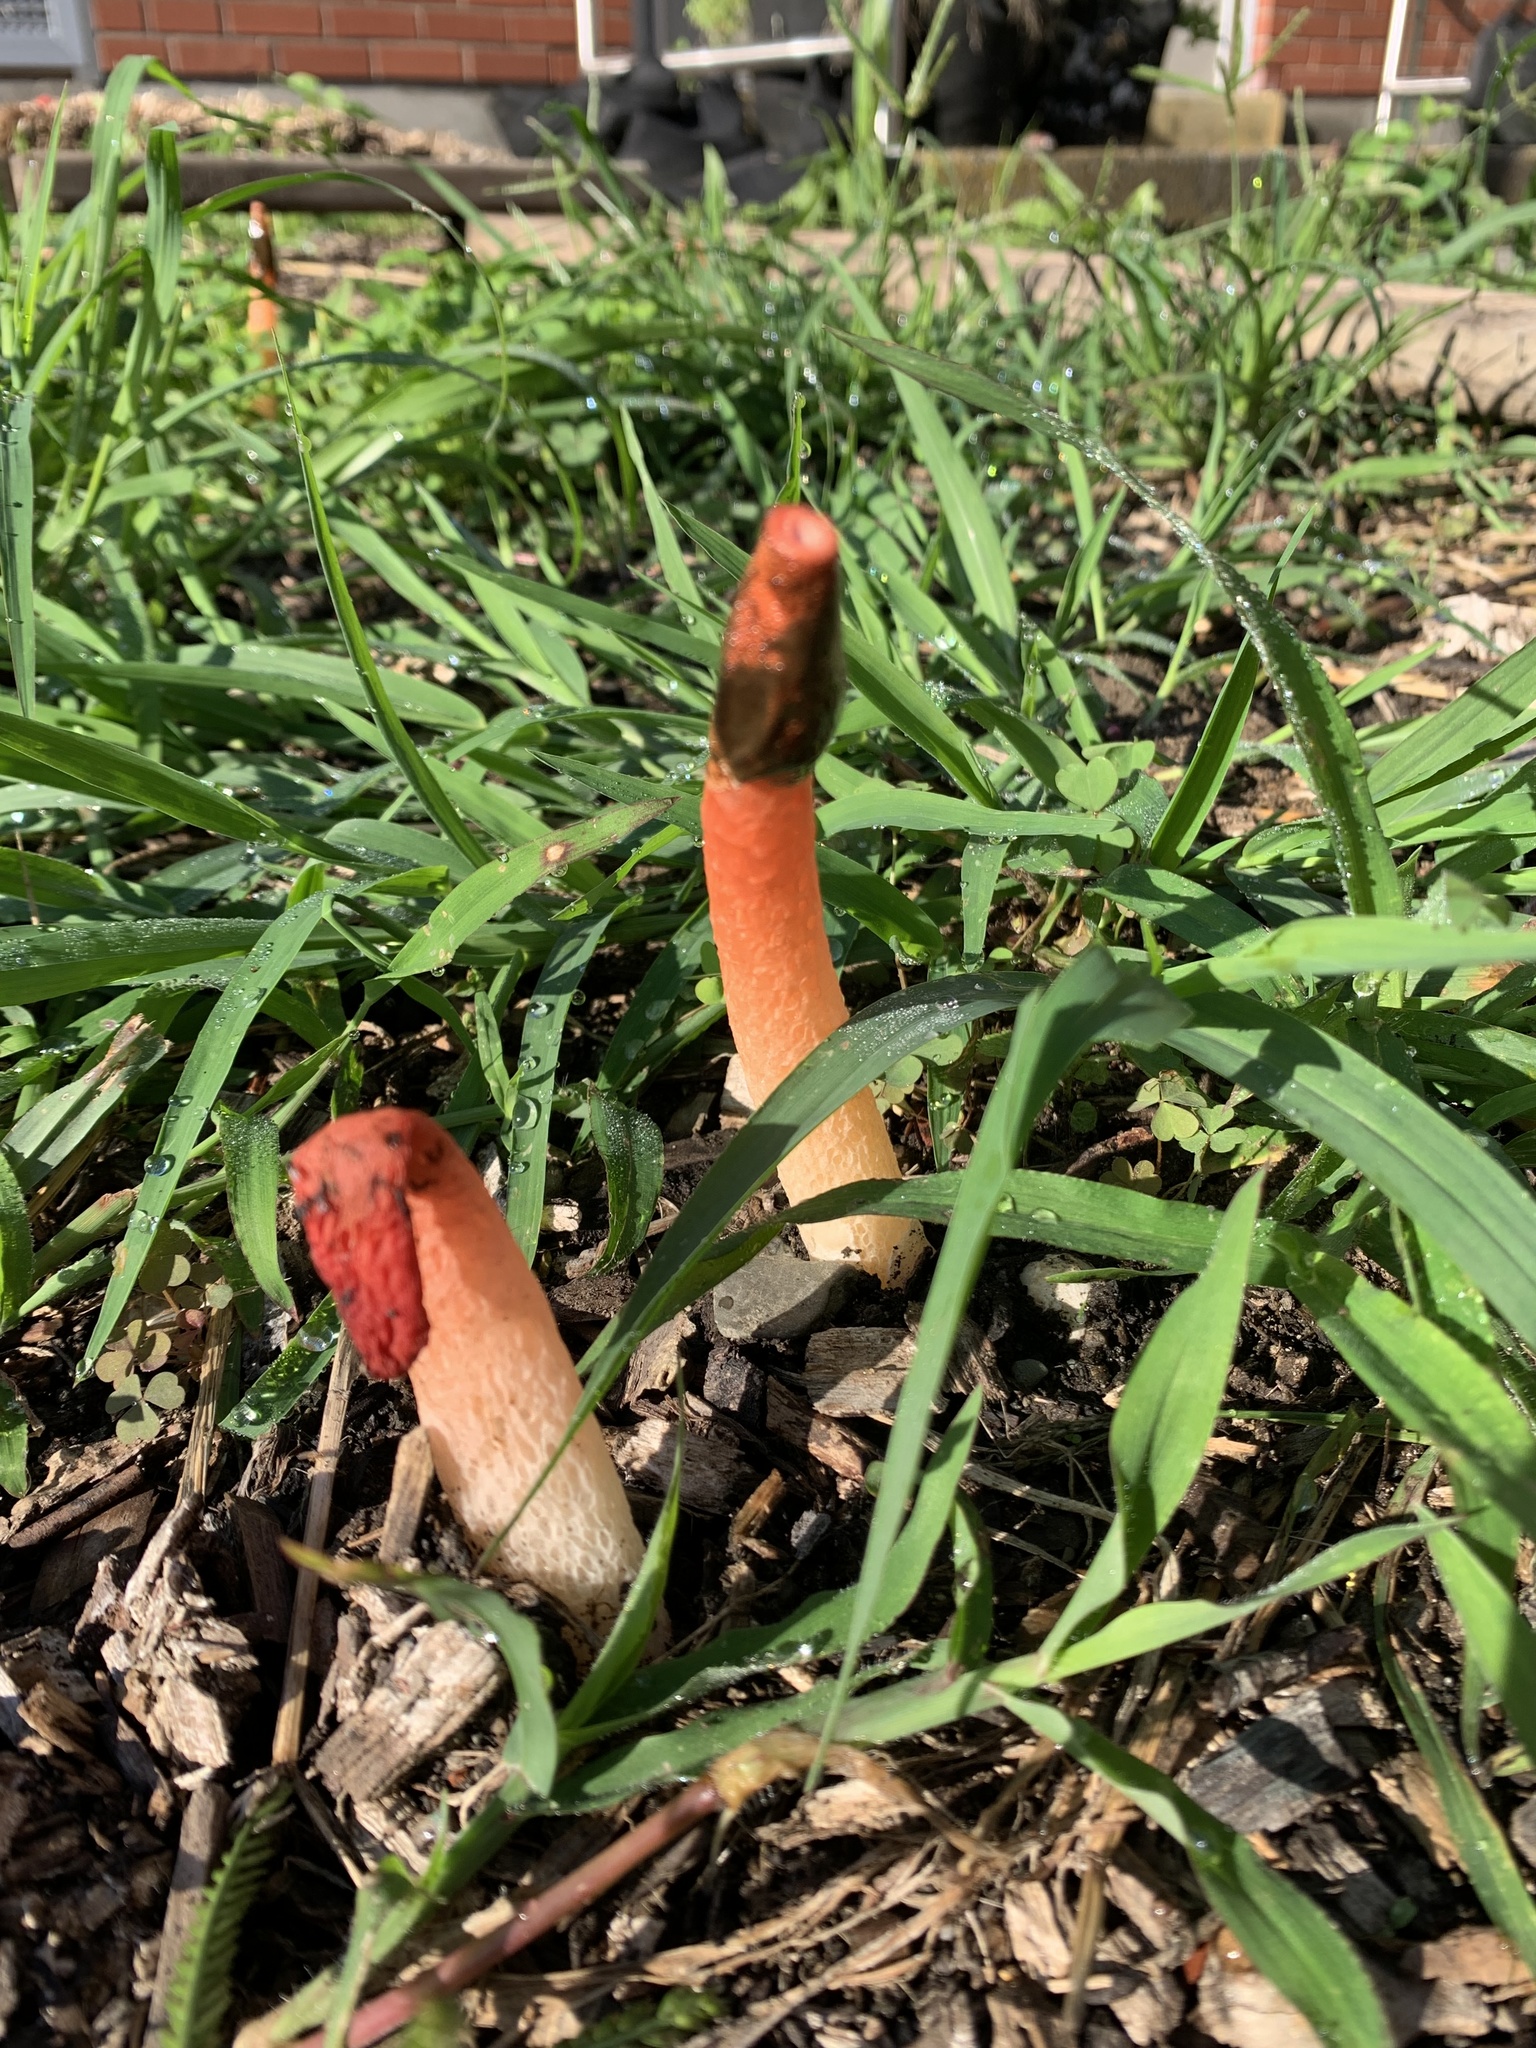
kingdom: Fungi
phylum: Basidiomycota
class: Agaricomycetes
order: Phallales
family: Phallaceae
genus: Phallus
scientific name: Phallus rugulosus
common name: Wrinkly stinkhorn
